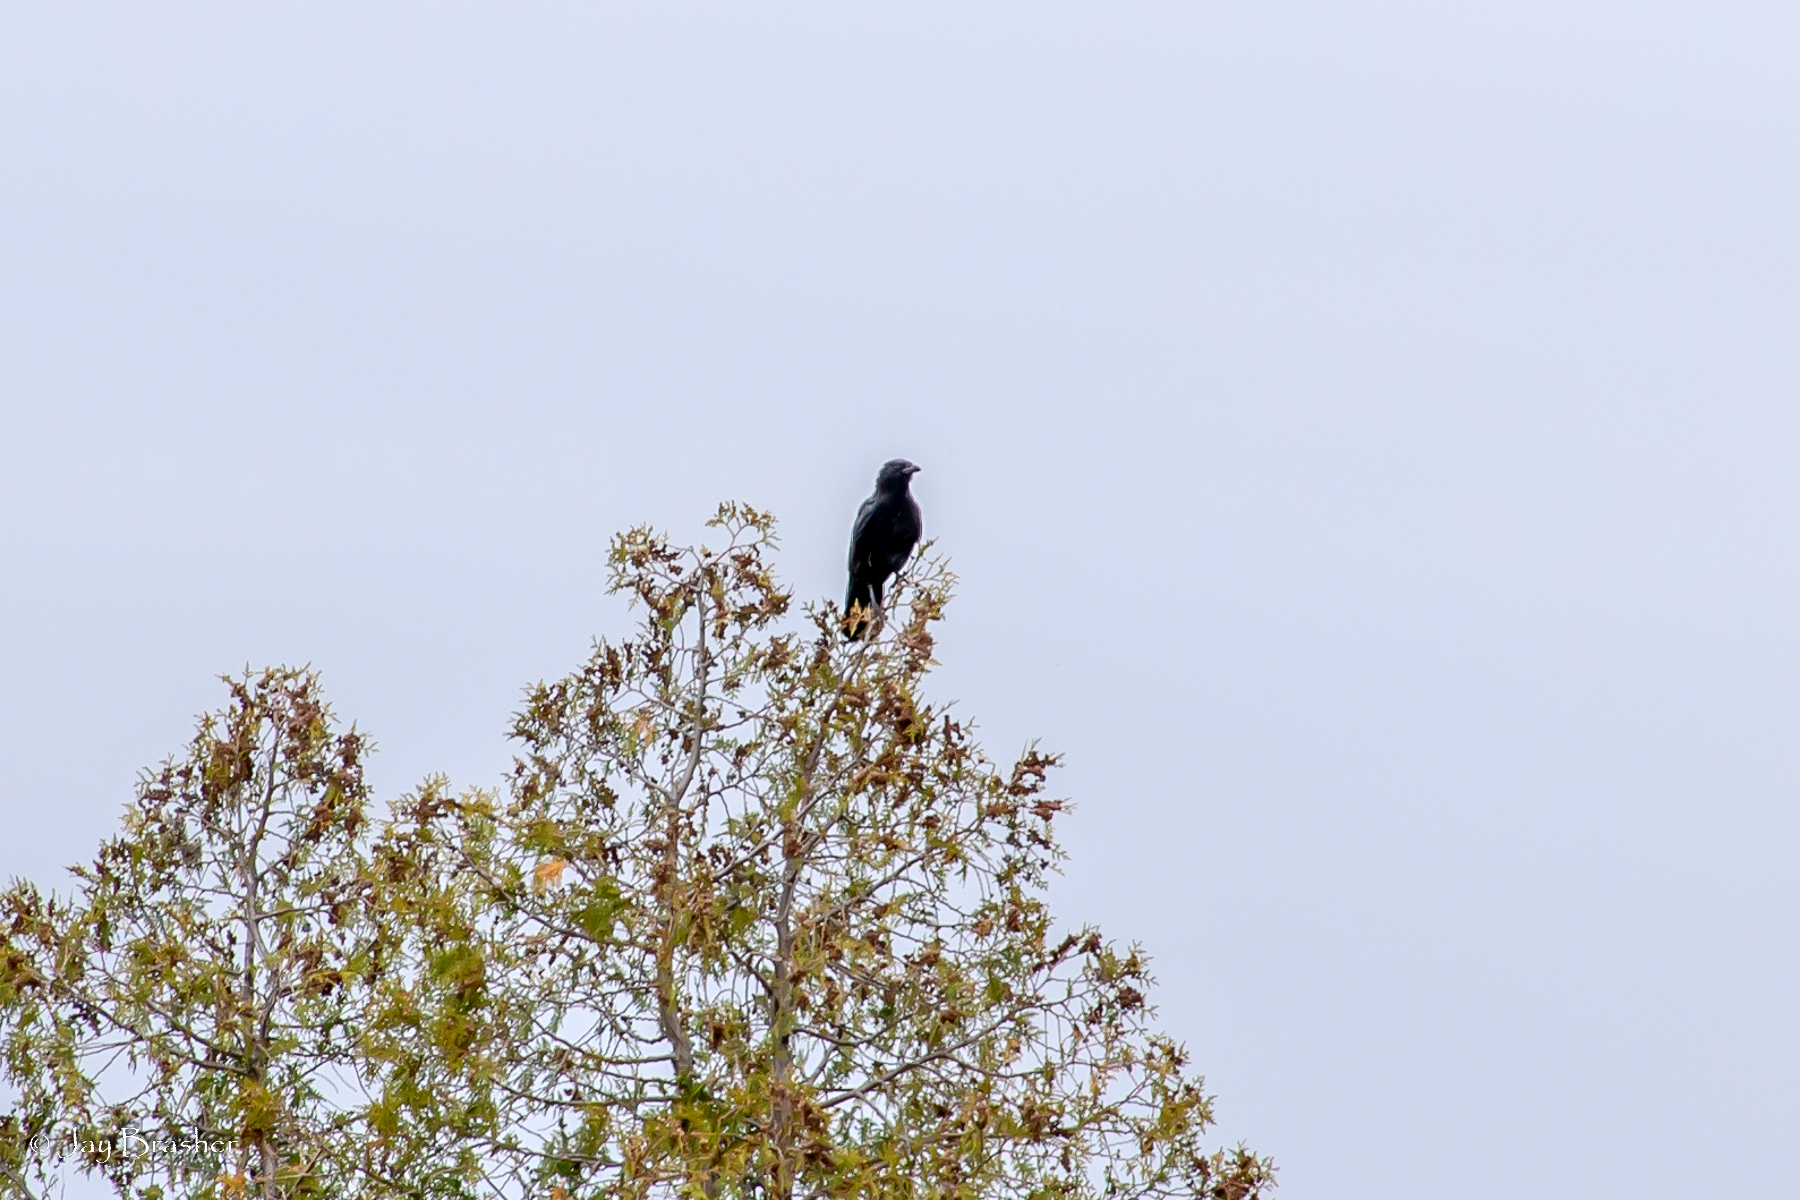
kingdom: Animalia
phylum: Chordata
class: Aves
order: Passeriformes
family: Corvidae
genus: Corvus
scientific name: Corvus brachyrhynchos
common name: American crow
